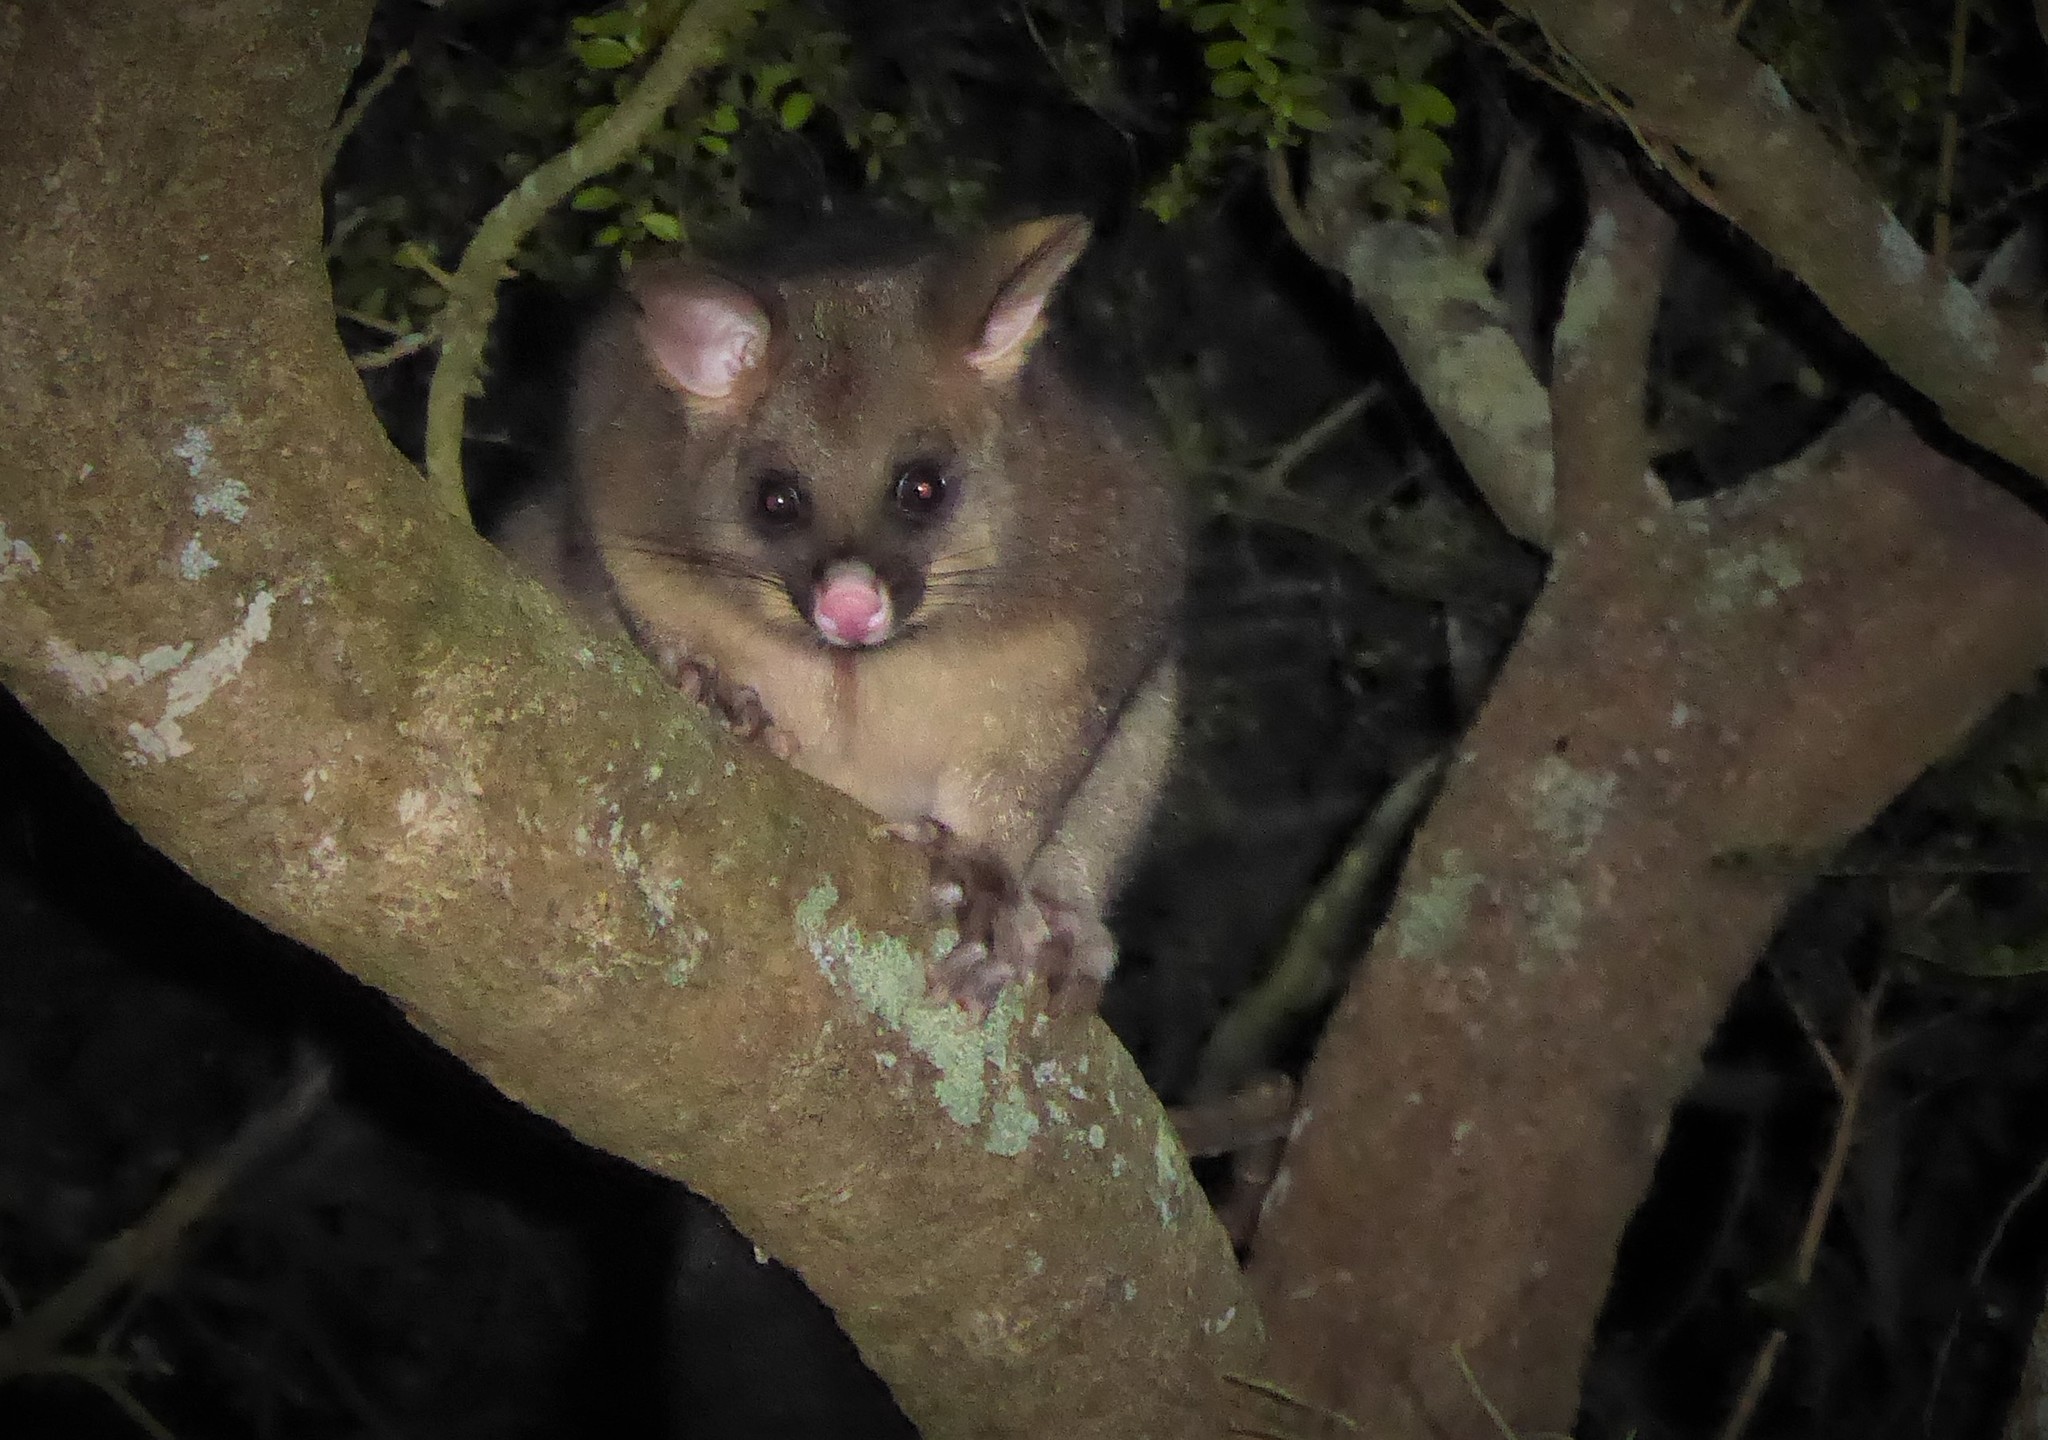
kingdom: Animalia
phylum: Chordata
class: Mammalia
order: Diprotodontia
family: Phalangeridae
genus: Trichosurus
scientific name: Trichosurus vulpecula
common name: Common brushtail
